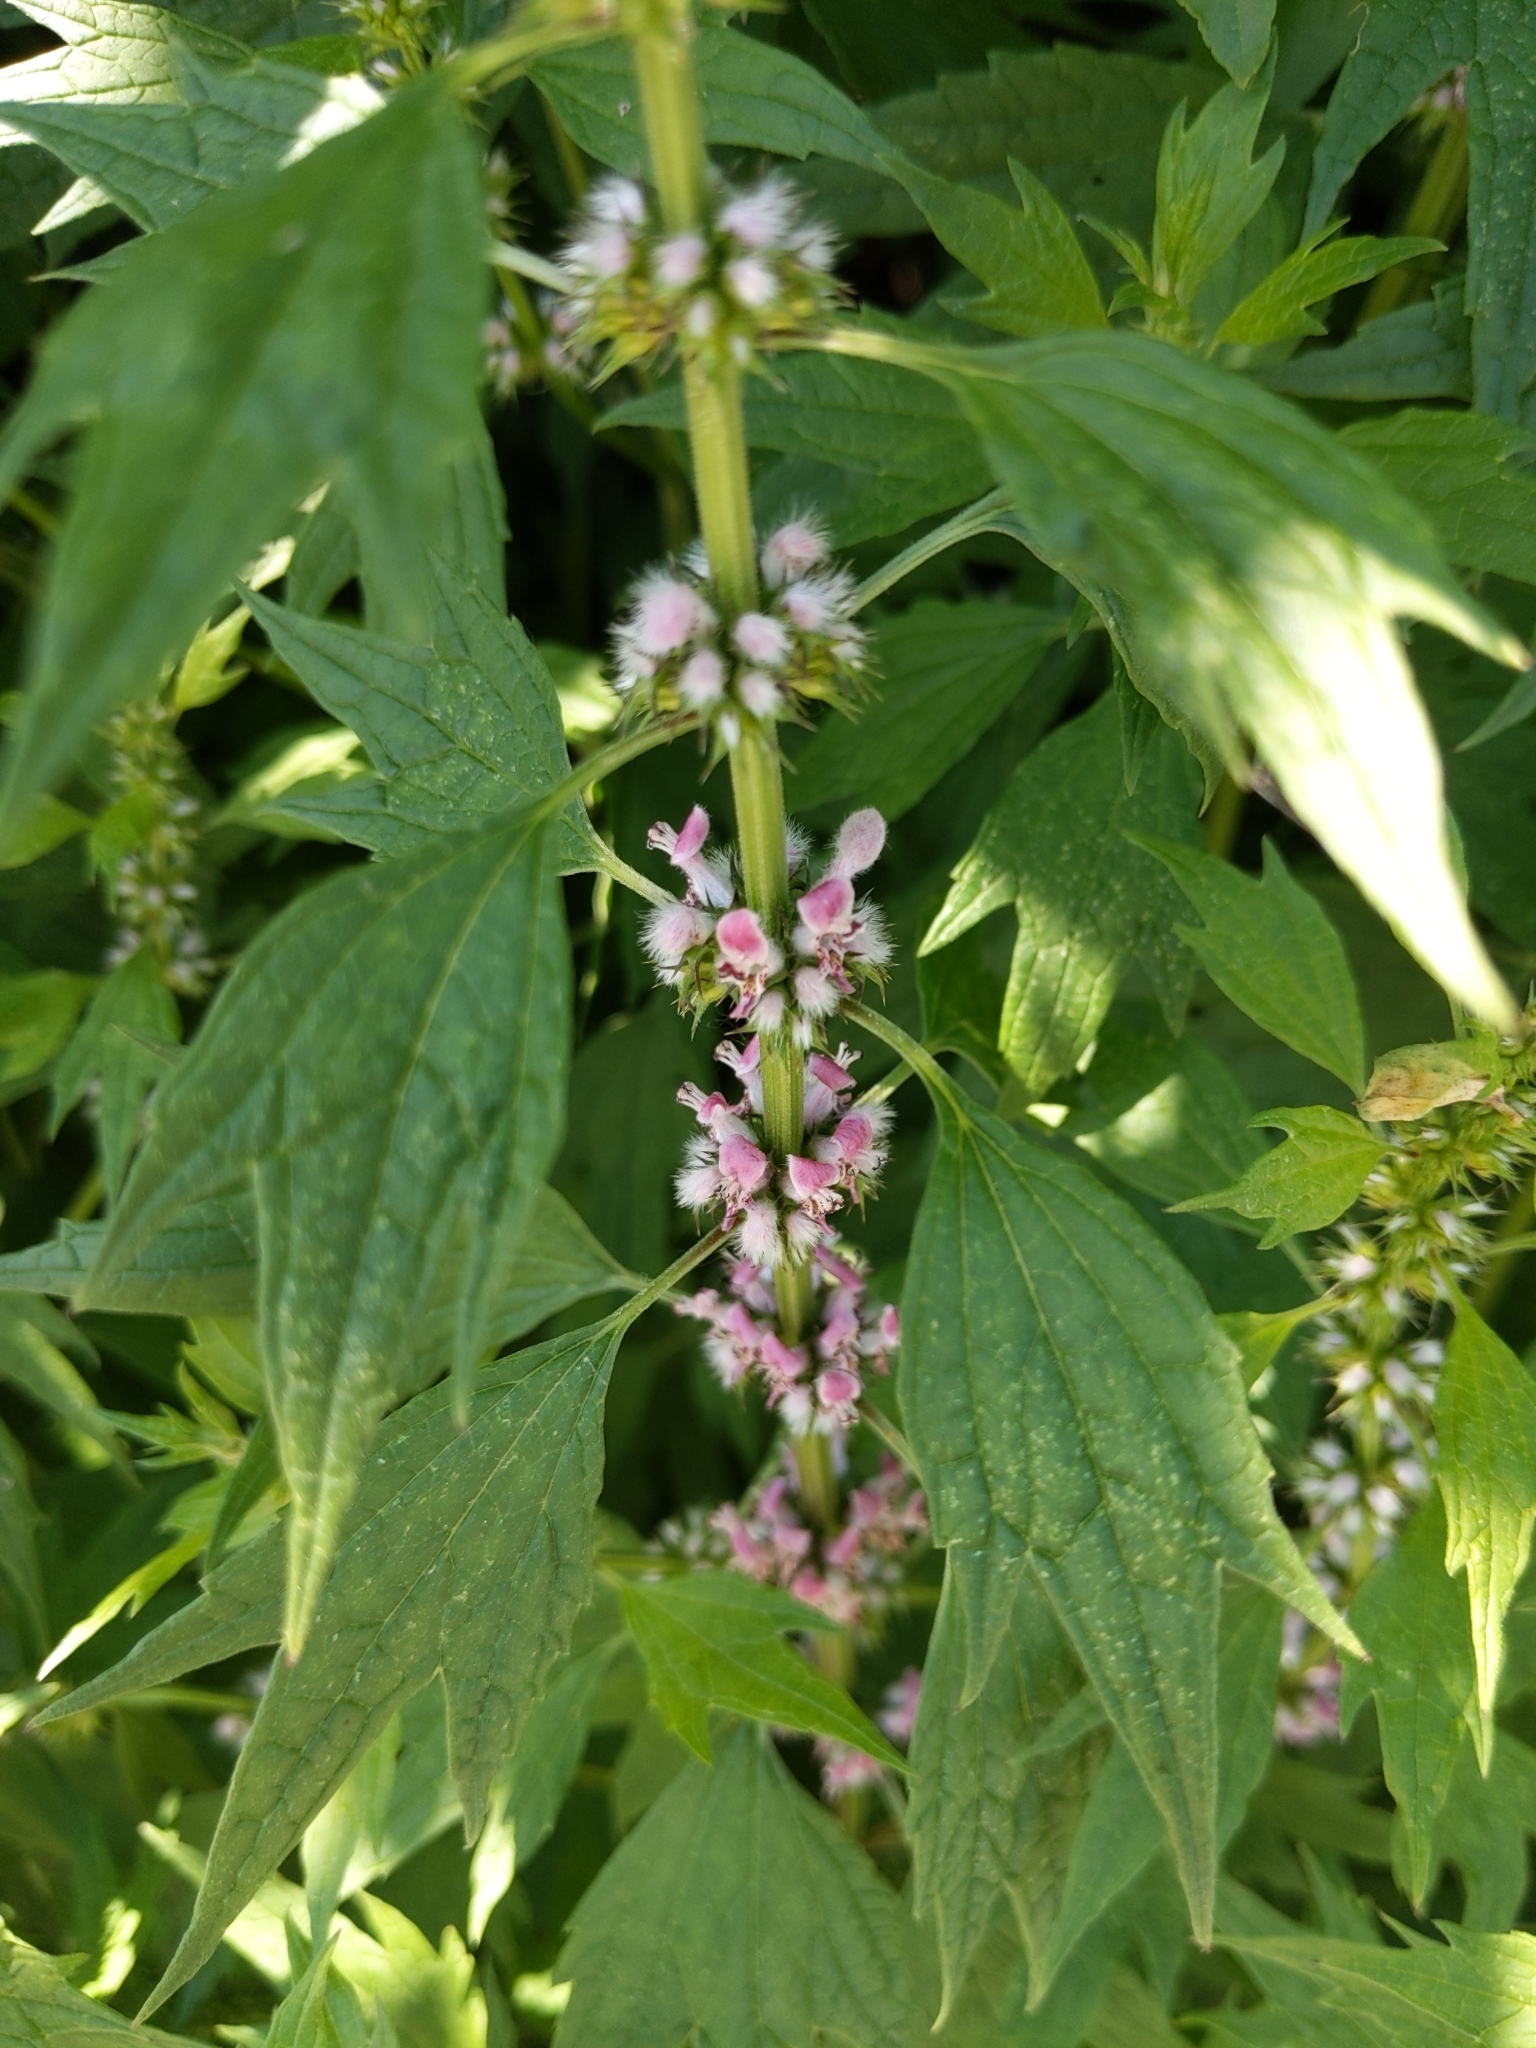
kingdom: Plantae
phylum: Tracheophyta
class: Magnoliopsida
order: Lamiales
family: Lamiaceae
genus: Leonurus
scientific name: Leonurus cardiaca
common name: Motherwort
